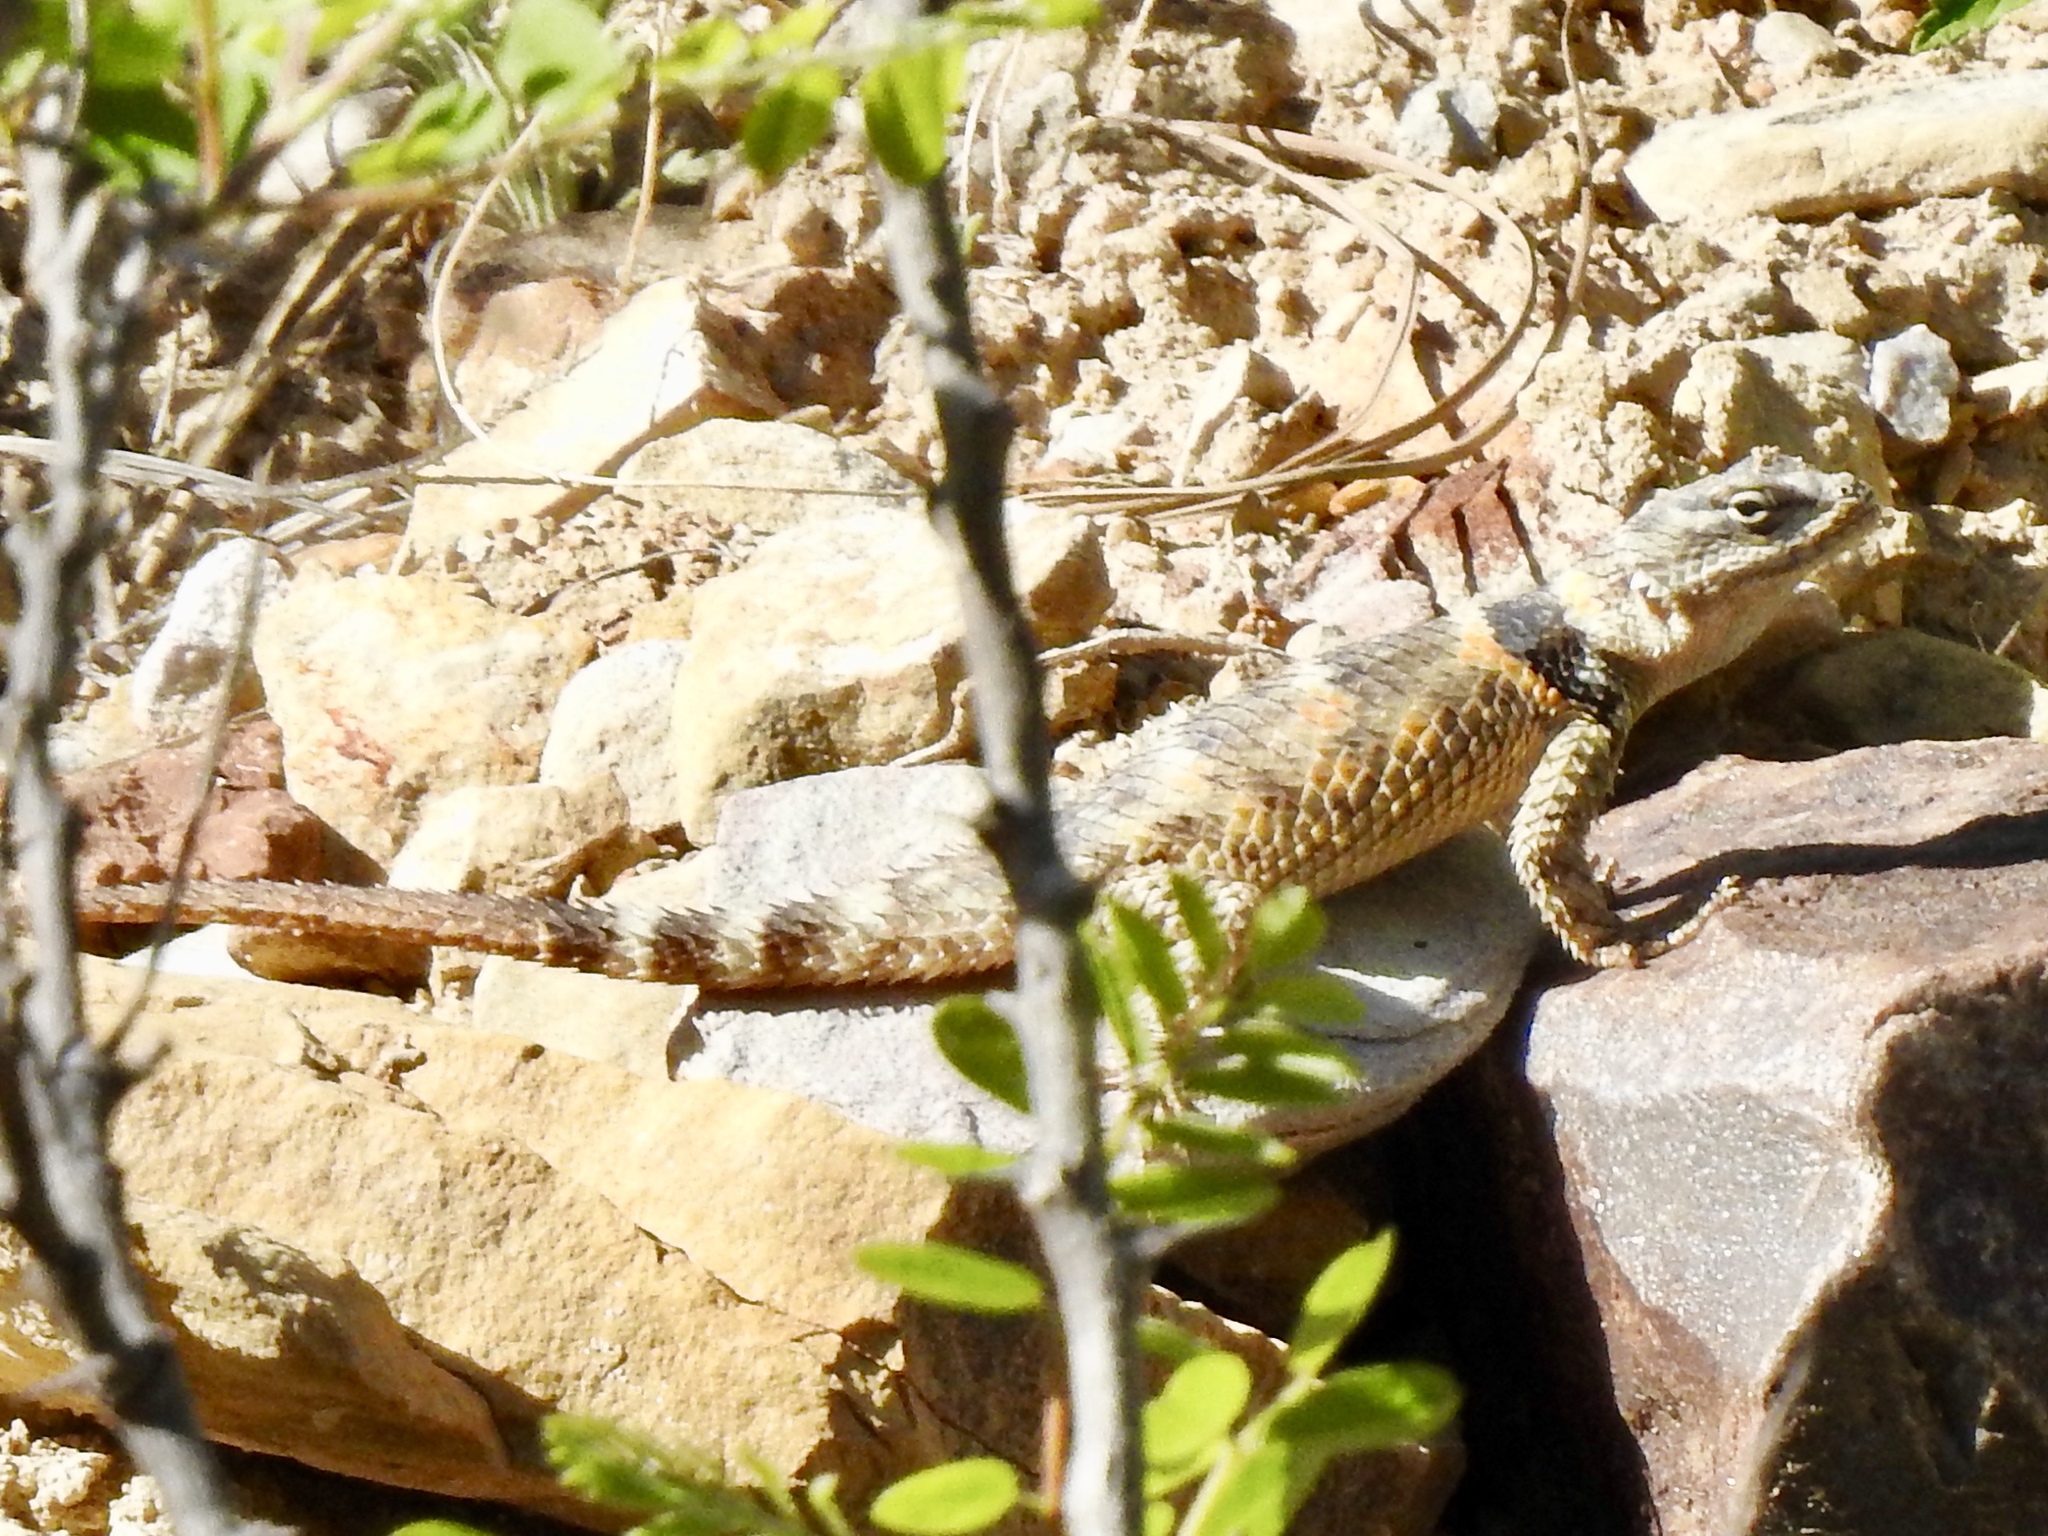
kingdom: Animalia
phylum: Chordata
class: Squamata
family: Phrynosomatidae
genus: Sceloporus
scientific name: Sceloporus poinsettii
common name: Crevice spiny lizard
